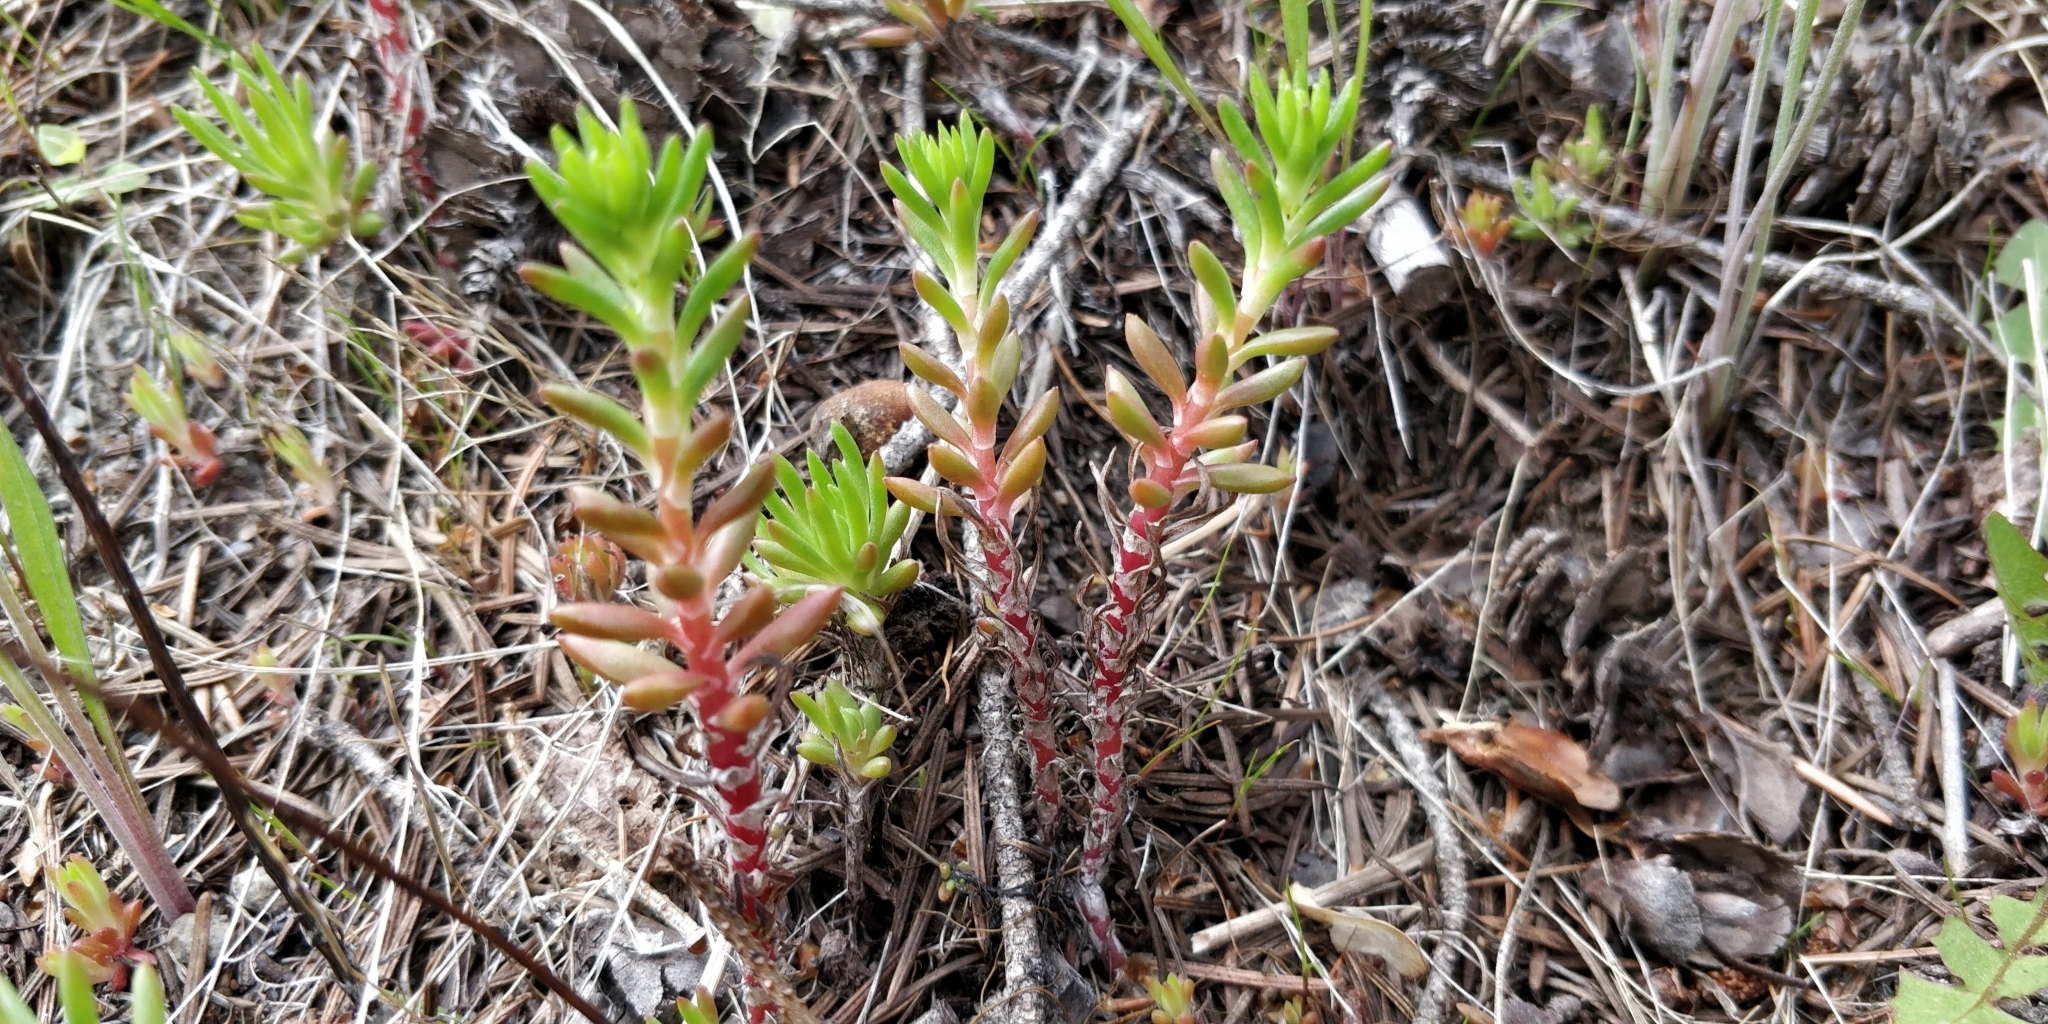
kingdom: Plantae
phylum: Tracheophyta
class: Magnoliopsida
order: Saxifragales
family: Crassulaceae
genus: Sedum
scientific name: Sedum lanceolatum
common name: Common stonecrop
